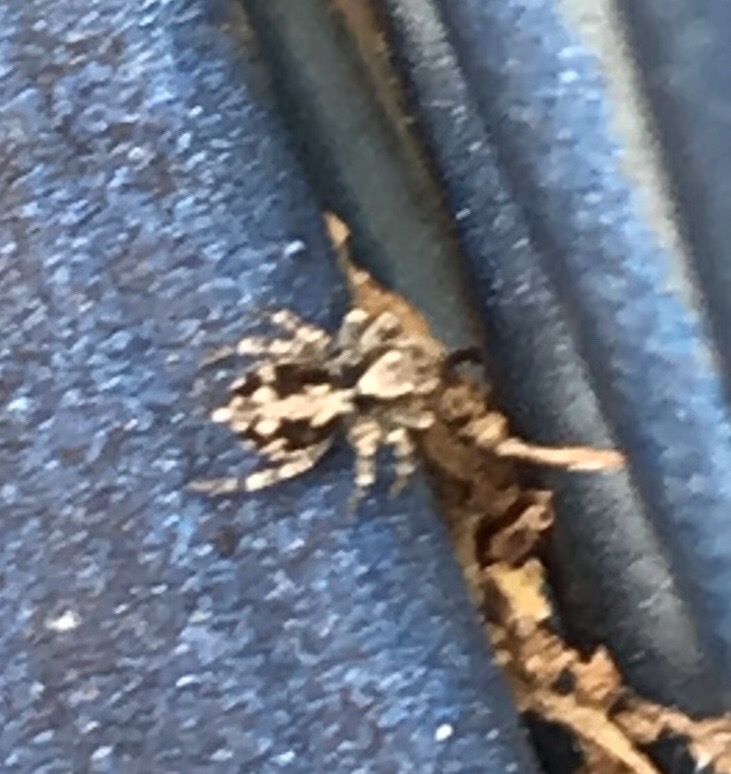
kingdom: Animalia
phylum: Arthropoda
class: Arachnida
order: Araneae
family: Salticidae
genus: Naphrys
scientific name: Naphrys pulex
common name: Flea jumping spider
